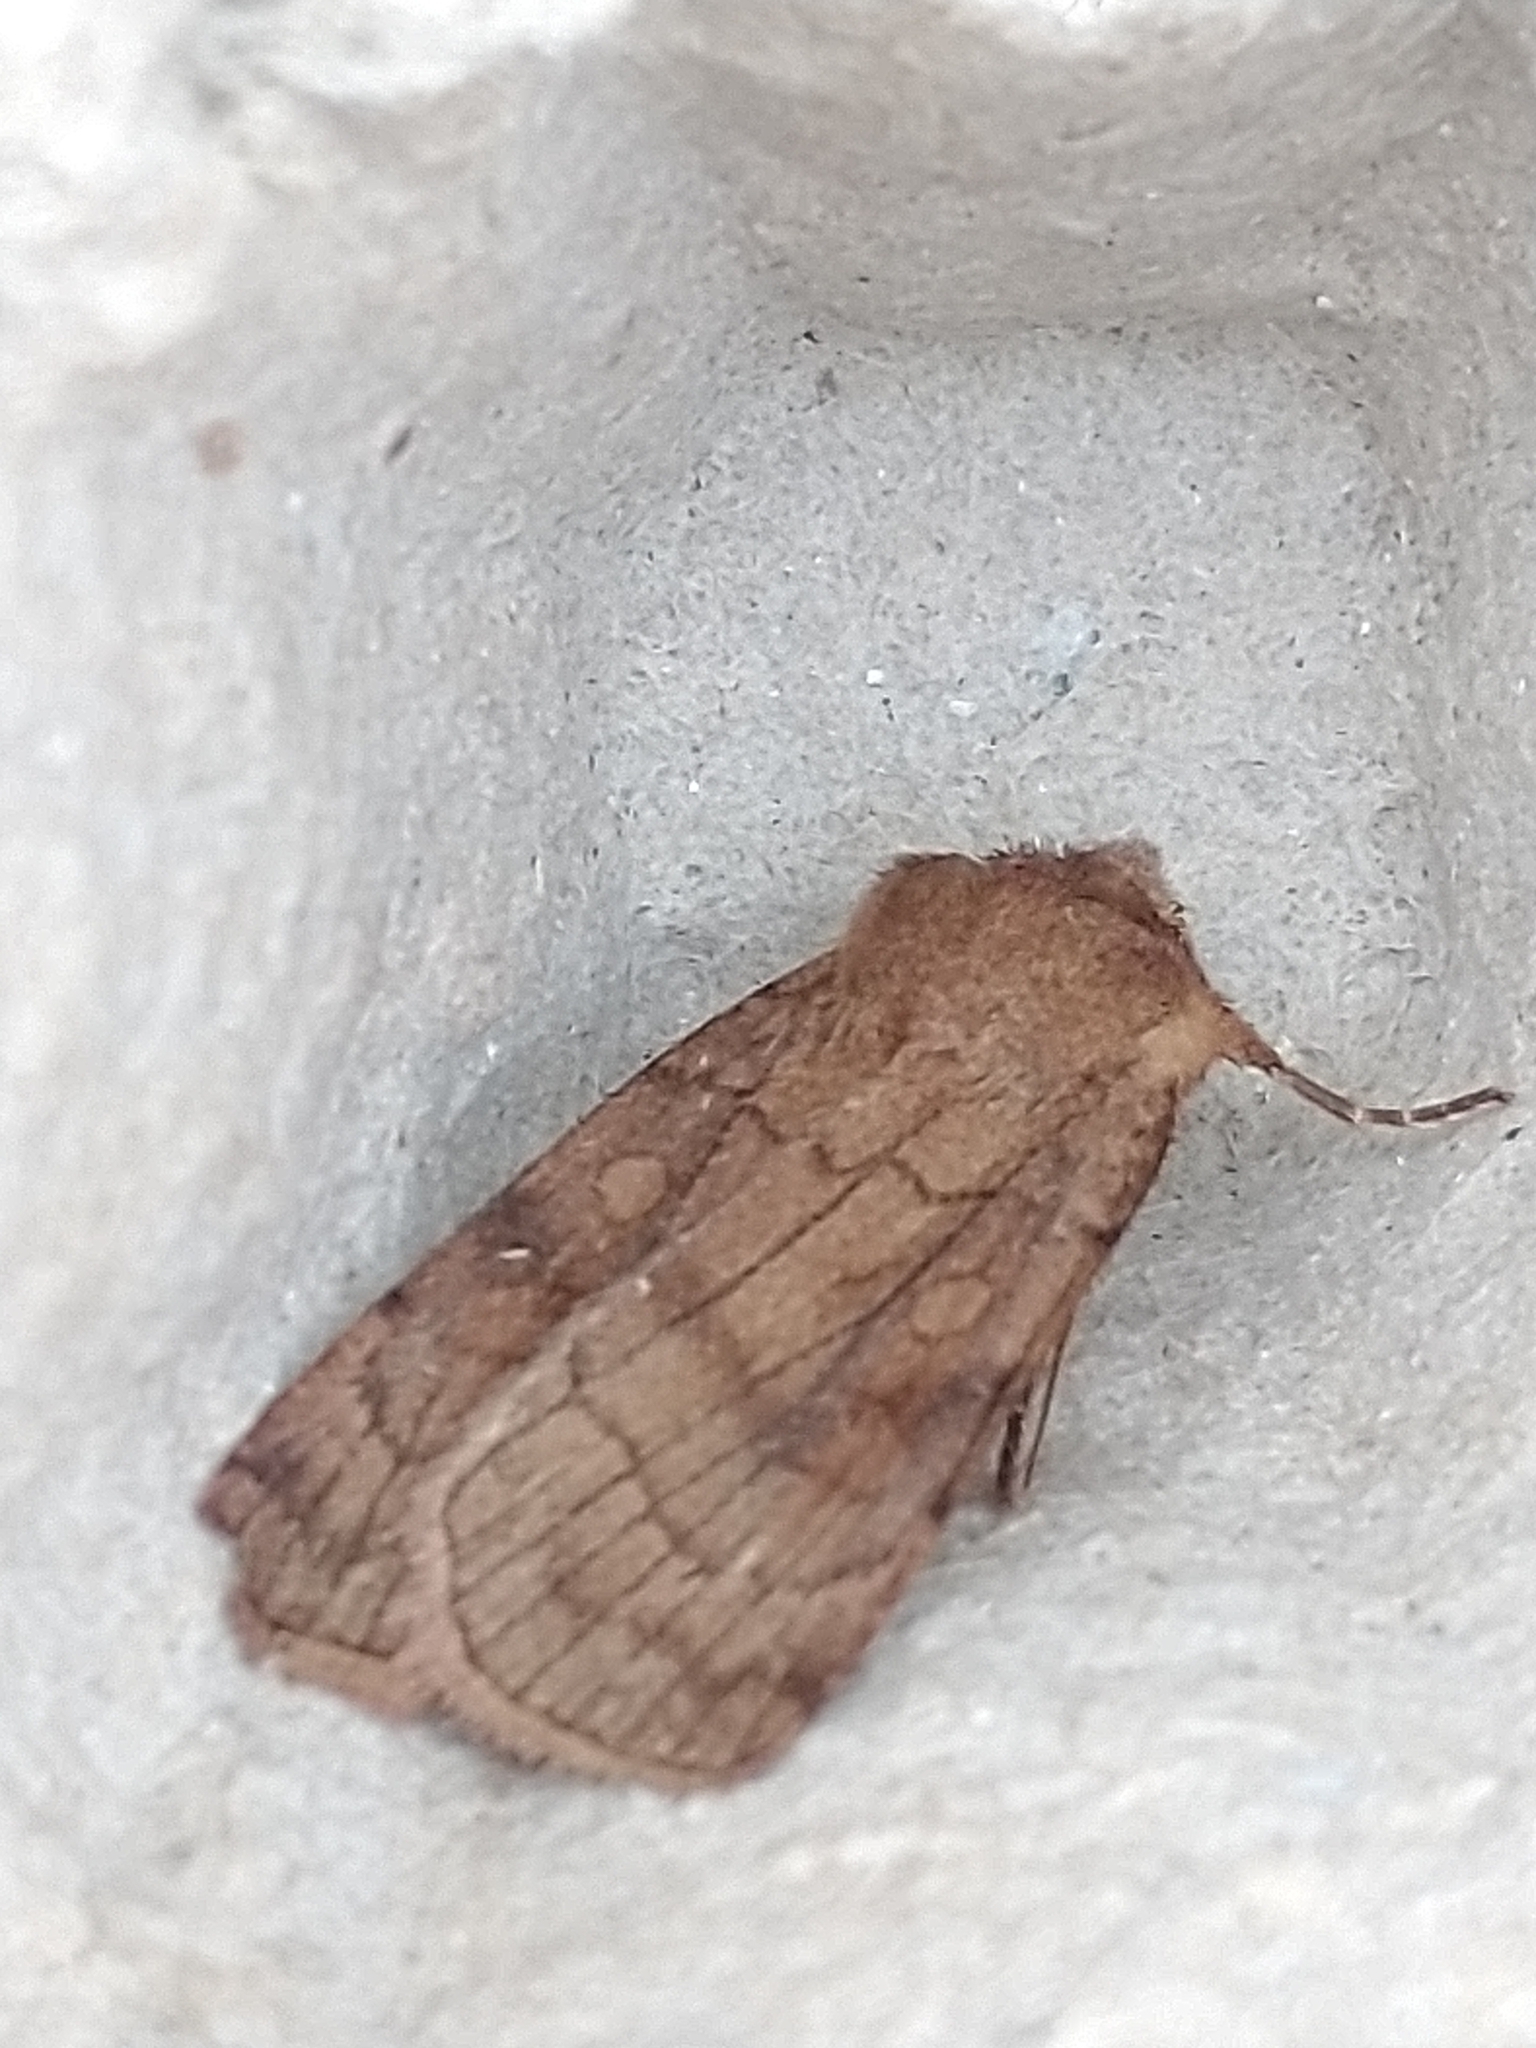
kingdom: Animalia
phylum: Arthropoda
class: Insecta
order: Lepidoptera
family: Noctuidae
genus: Xestia
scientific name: Xestia sexstrigata
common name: Six-striped rustic
